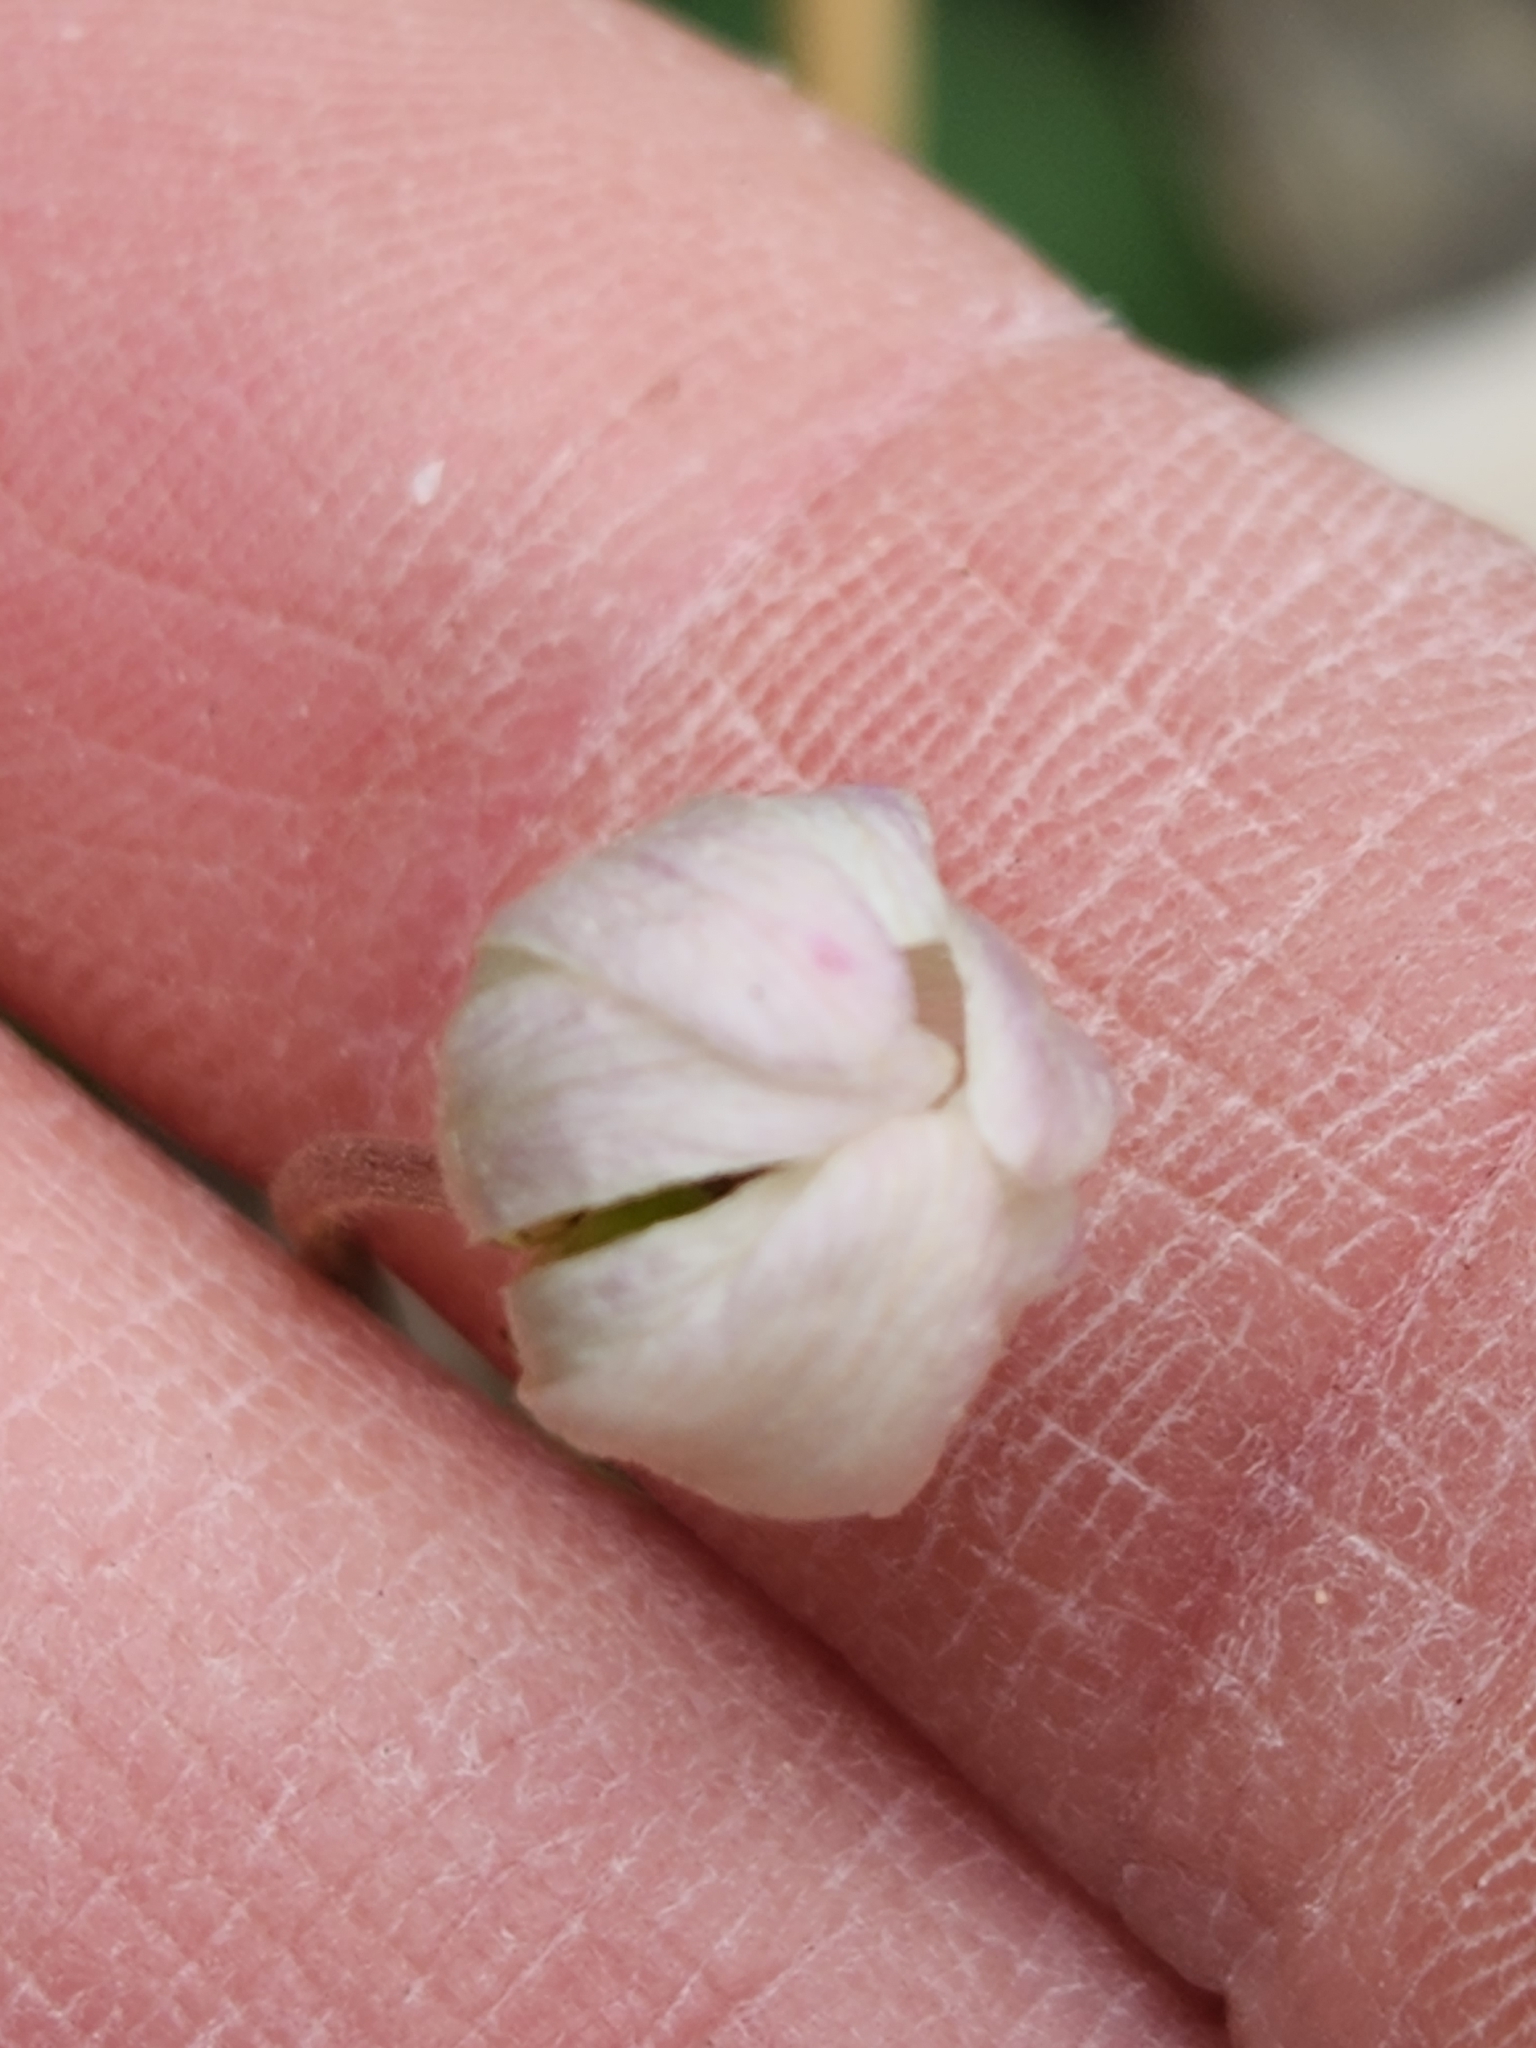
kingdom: Plantae
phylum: Tracheophyta
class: Magnoliopsida
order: Ranunculales
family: Ranunculaceae
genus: Anemone
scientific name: Anemone edwardsiana
